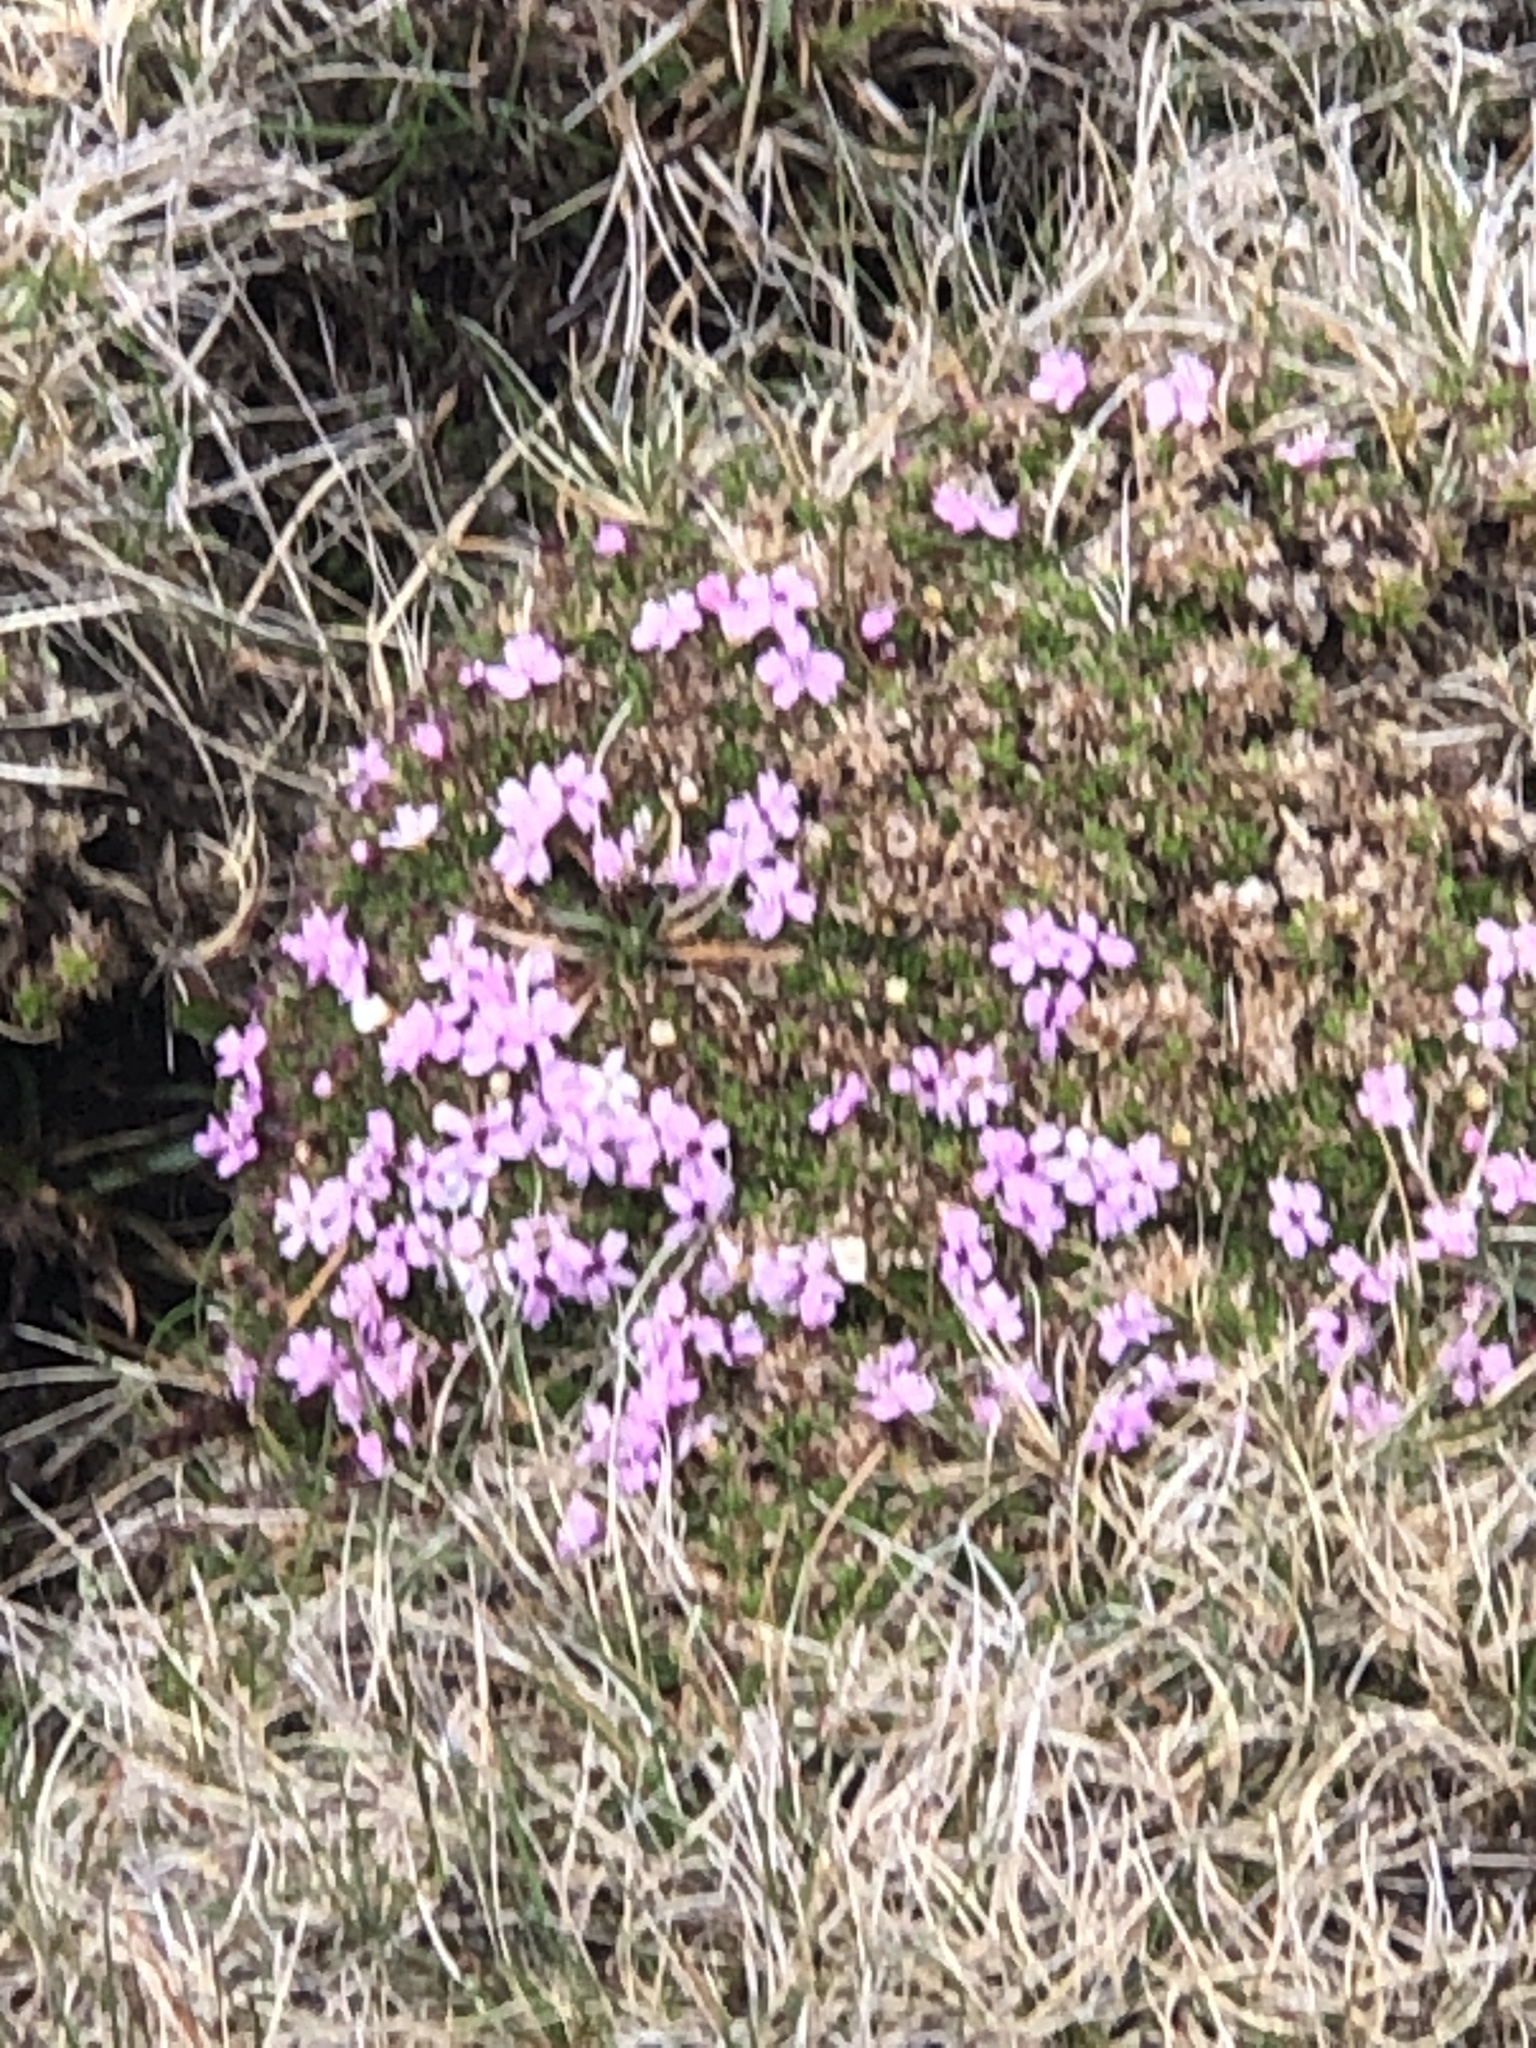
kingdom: Plantae
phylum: Tracheophyta
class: Magnoliopsida
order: Caryophyllales
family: Caryophyllaceae
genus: Silene
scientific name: Silene acaulis
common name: Moss campion
